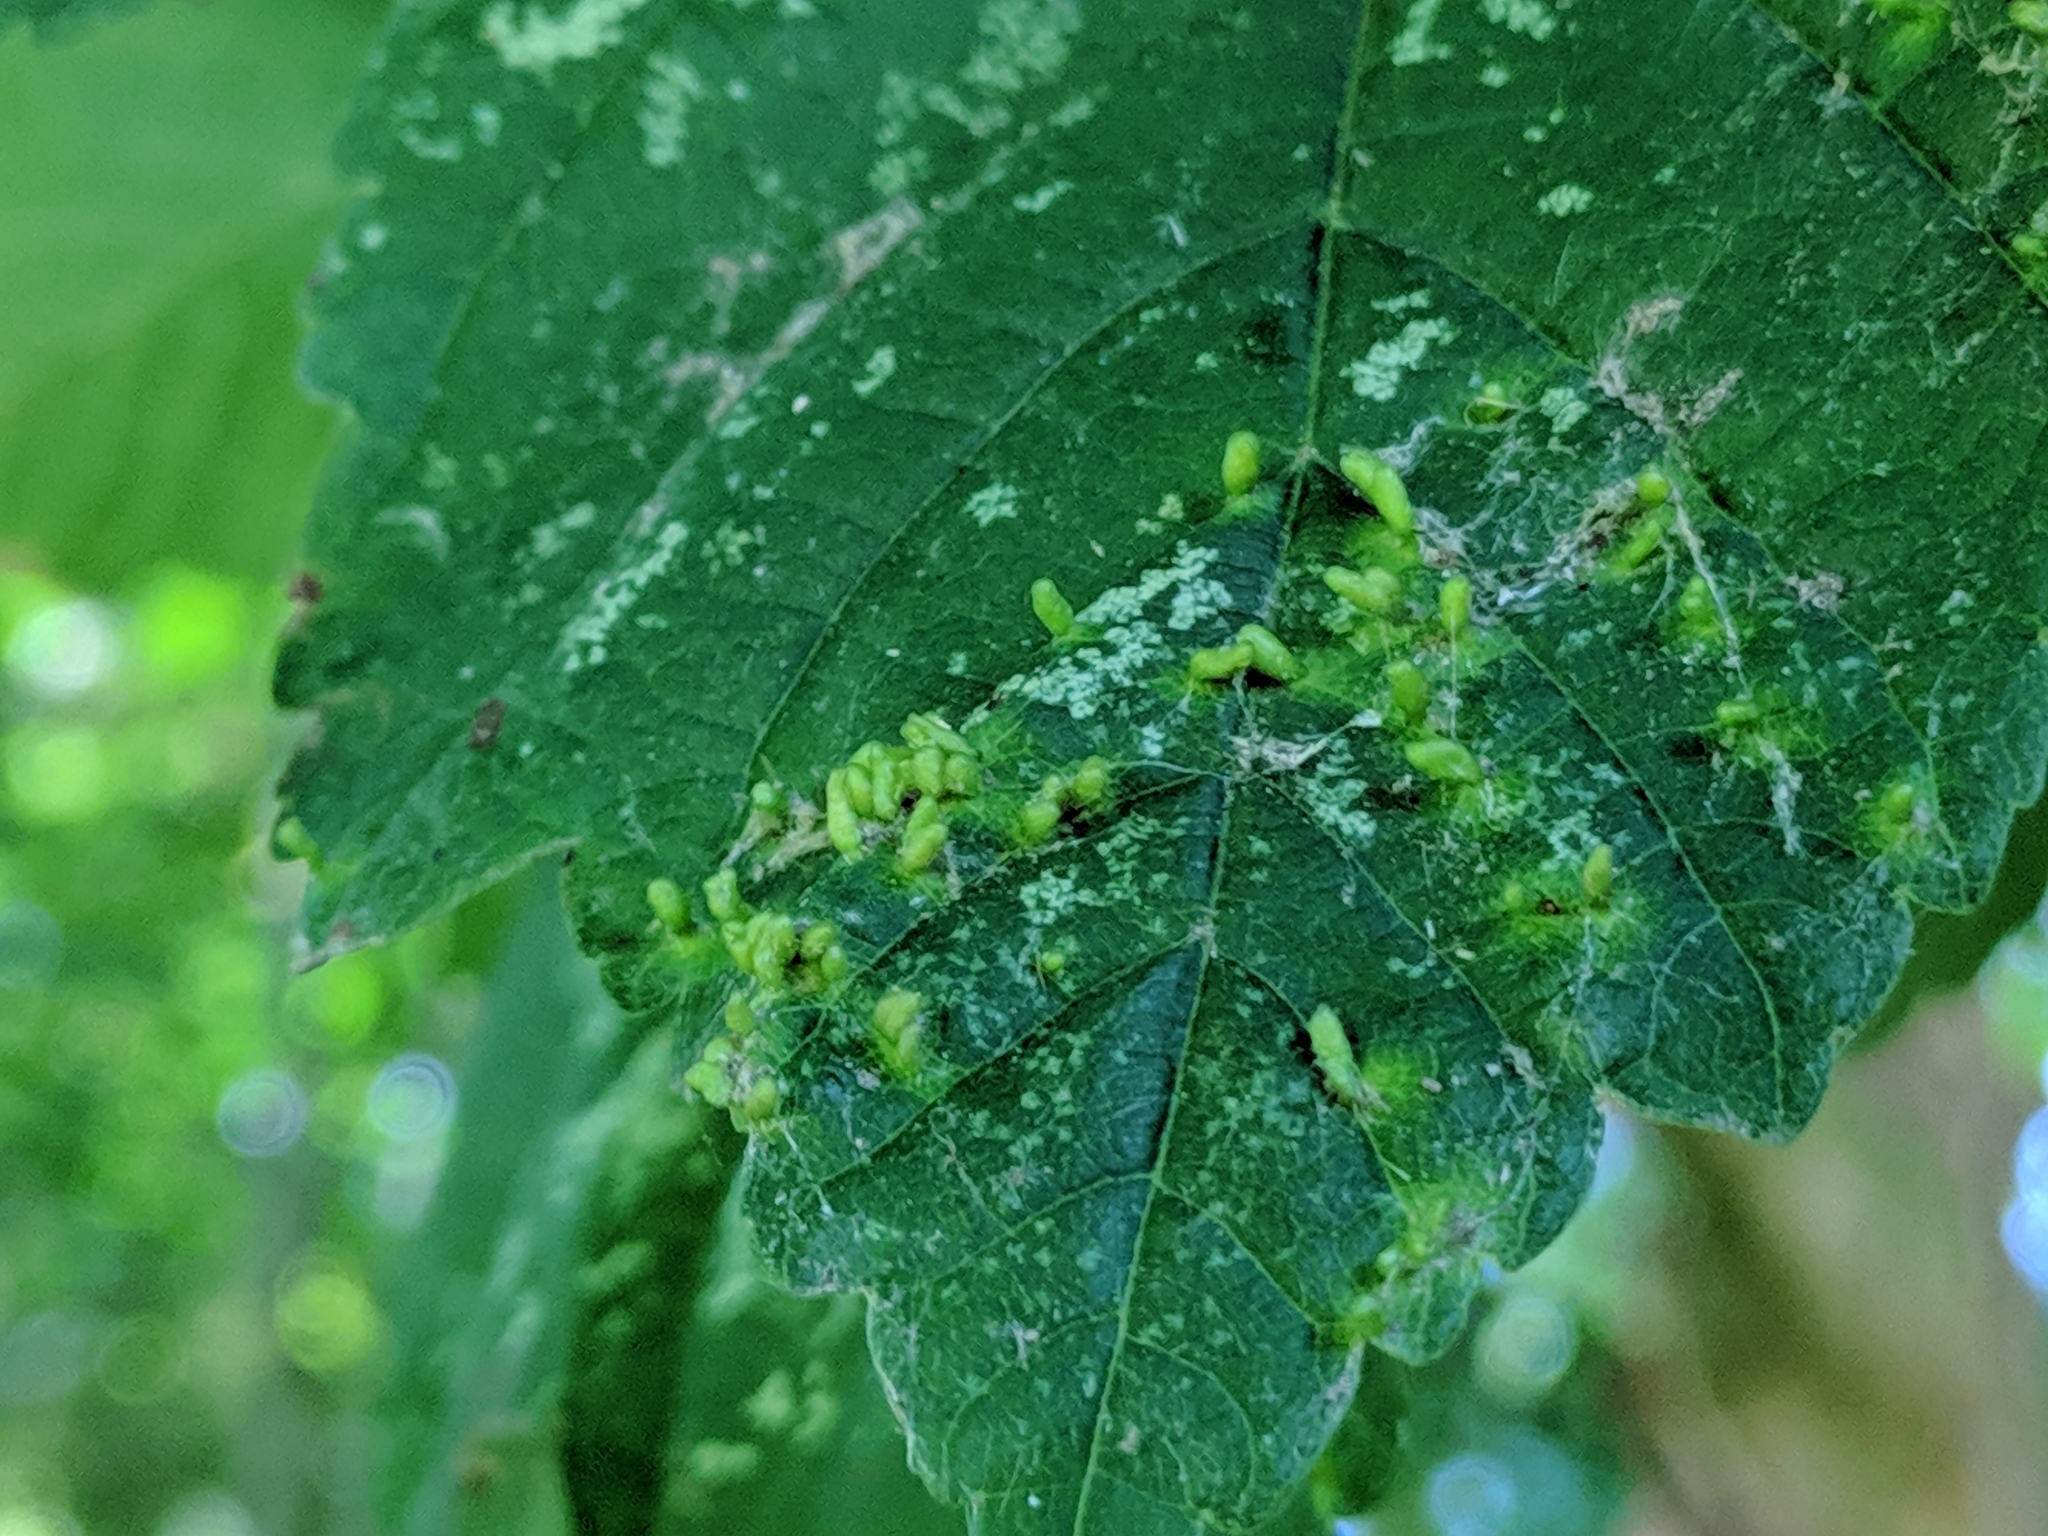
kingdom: Plantae
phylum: Tracheophyta
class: Magnoliopsida
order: Sapindales
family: Sapindaceae
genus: Acer
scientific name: Acer pseudoplatanus
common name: Sycamore
